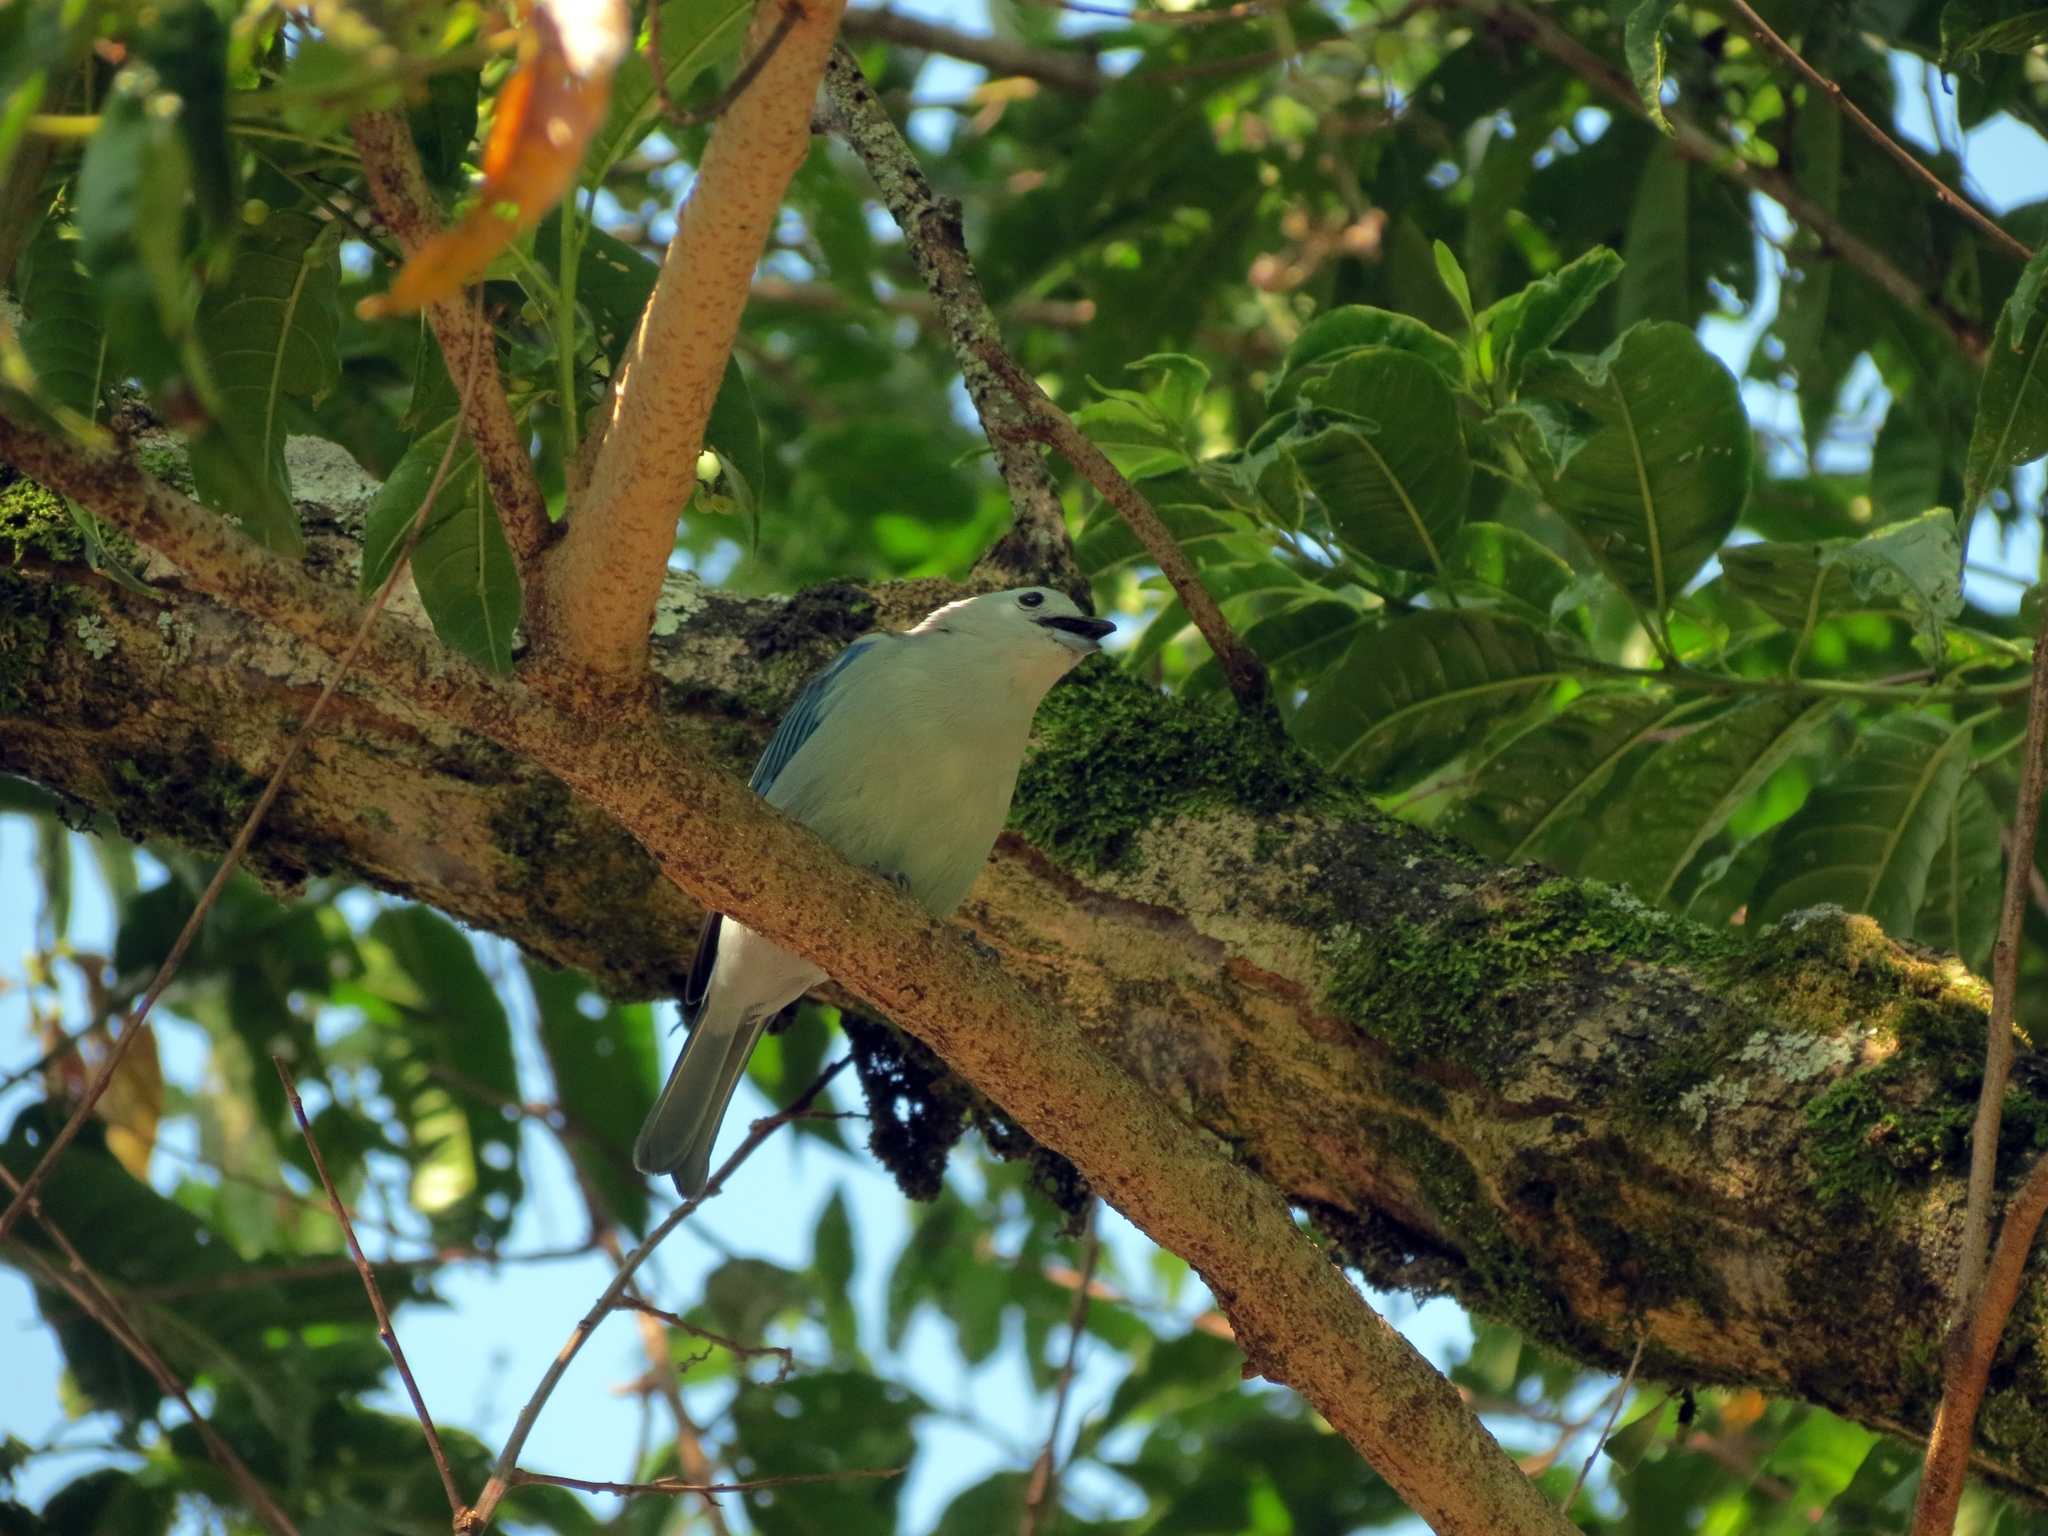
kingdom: Animalia
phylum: Chordata
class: Aves
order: Passeriformes
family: Thraupidae
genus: Thraupis
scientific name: Thraupis episcopus
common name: Blue-grey tanager
